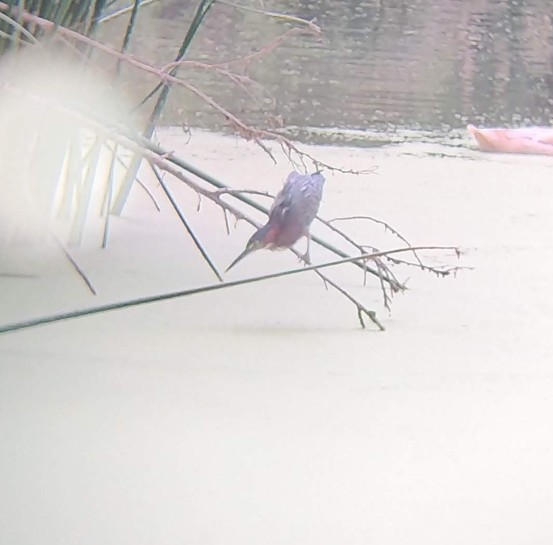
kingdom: Animalia
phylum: Chordata
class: Aves
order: Pelecaniformes
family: Ardeidae
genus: Butorides
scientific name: Butorides virescens
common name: Green heron
